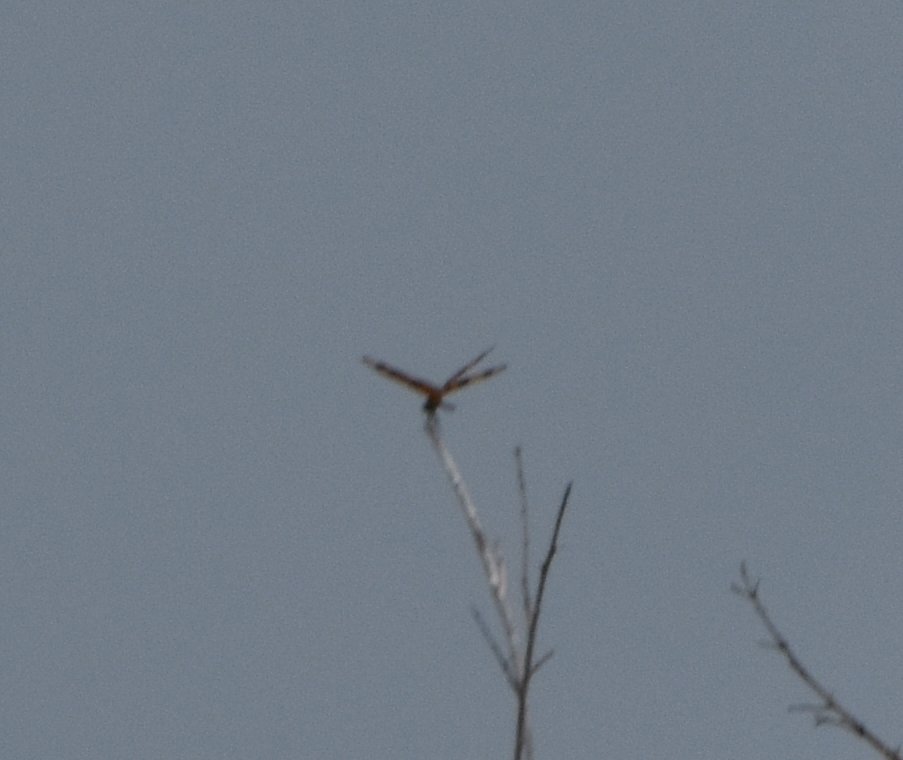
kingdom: Animalia
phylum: Arthropoda
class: Insecta
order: Odonata
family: Libellulidae
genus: Celithemis
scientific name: Celithemis eponina
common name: Halloween pennant
